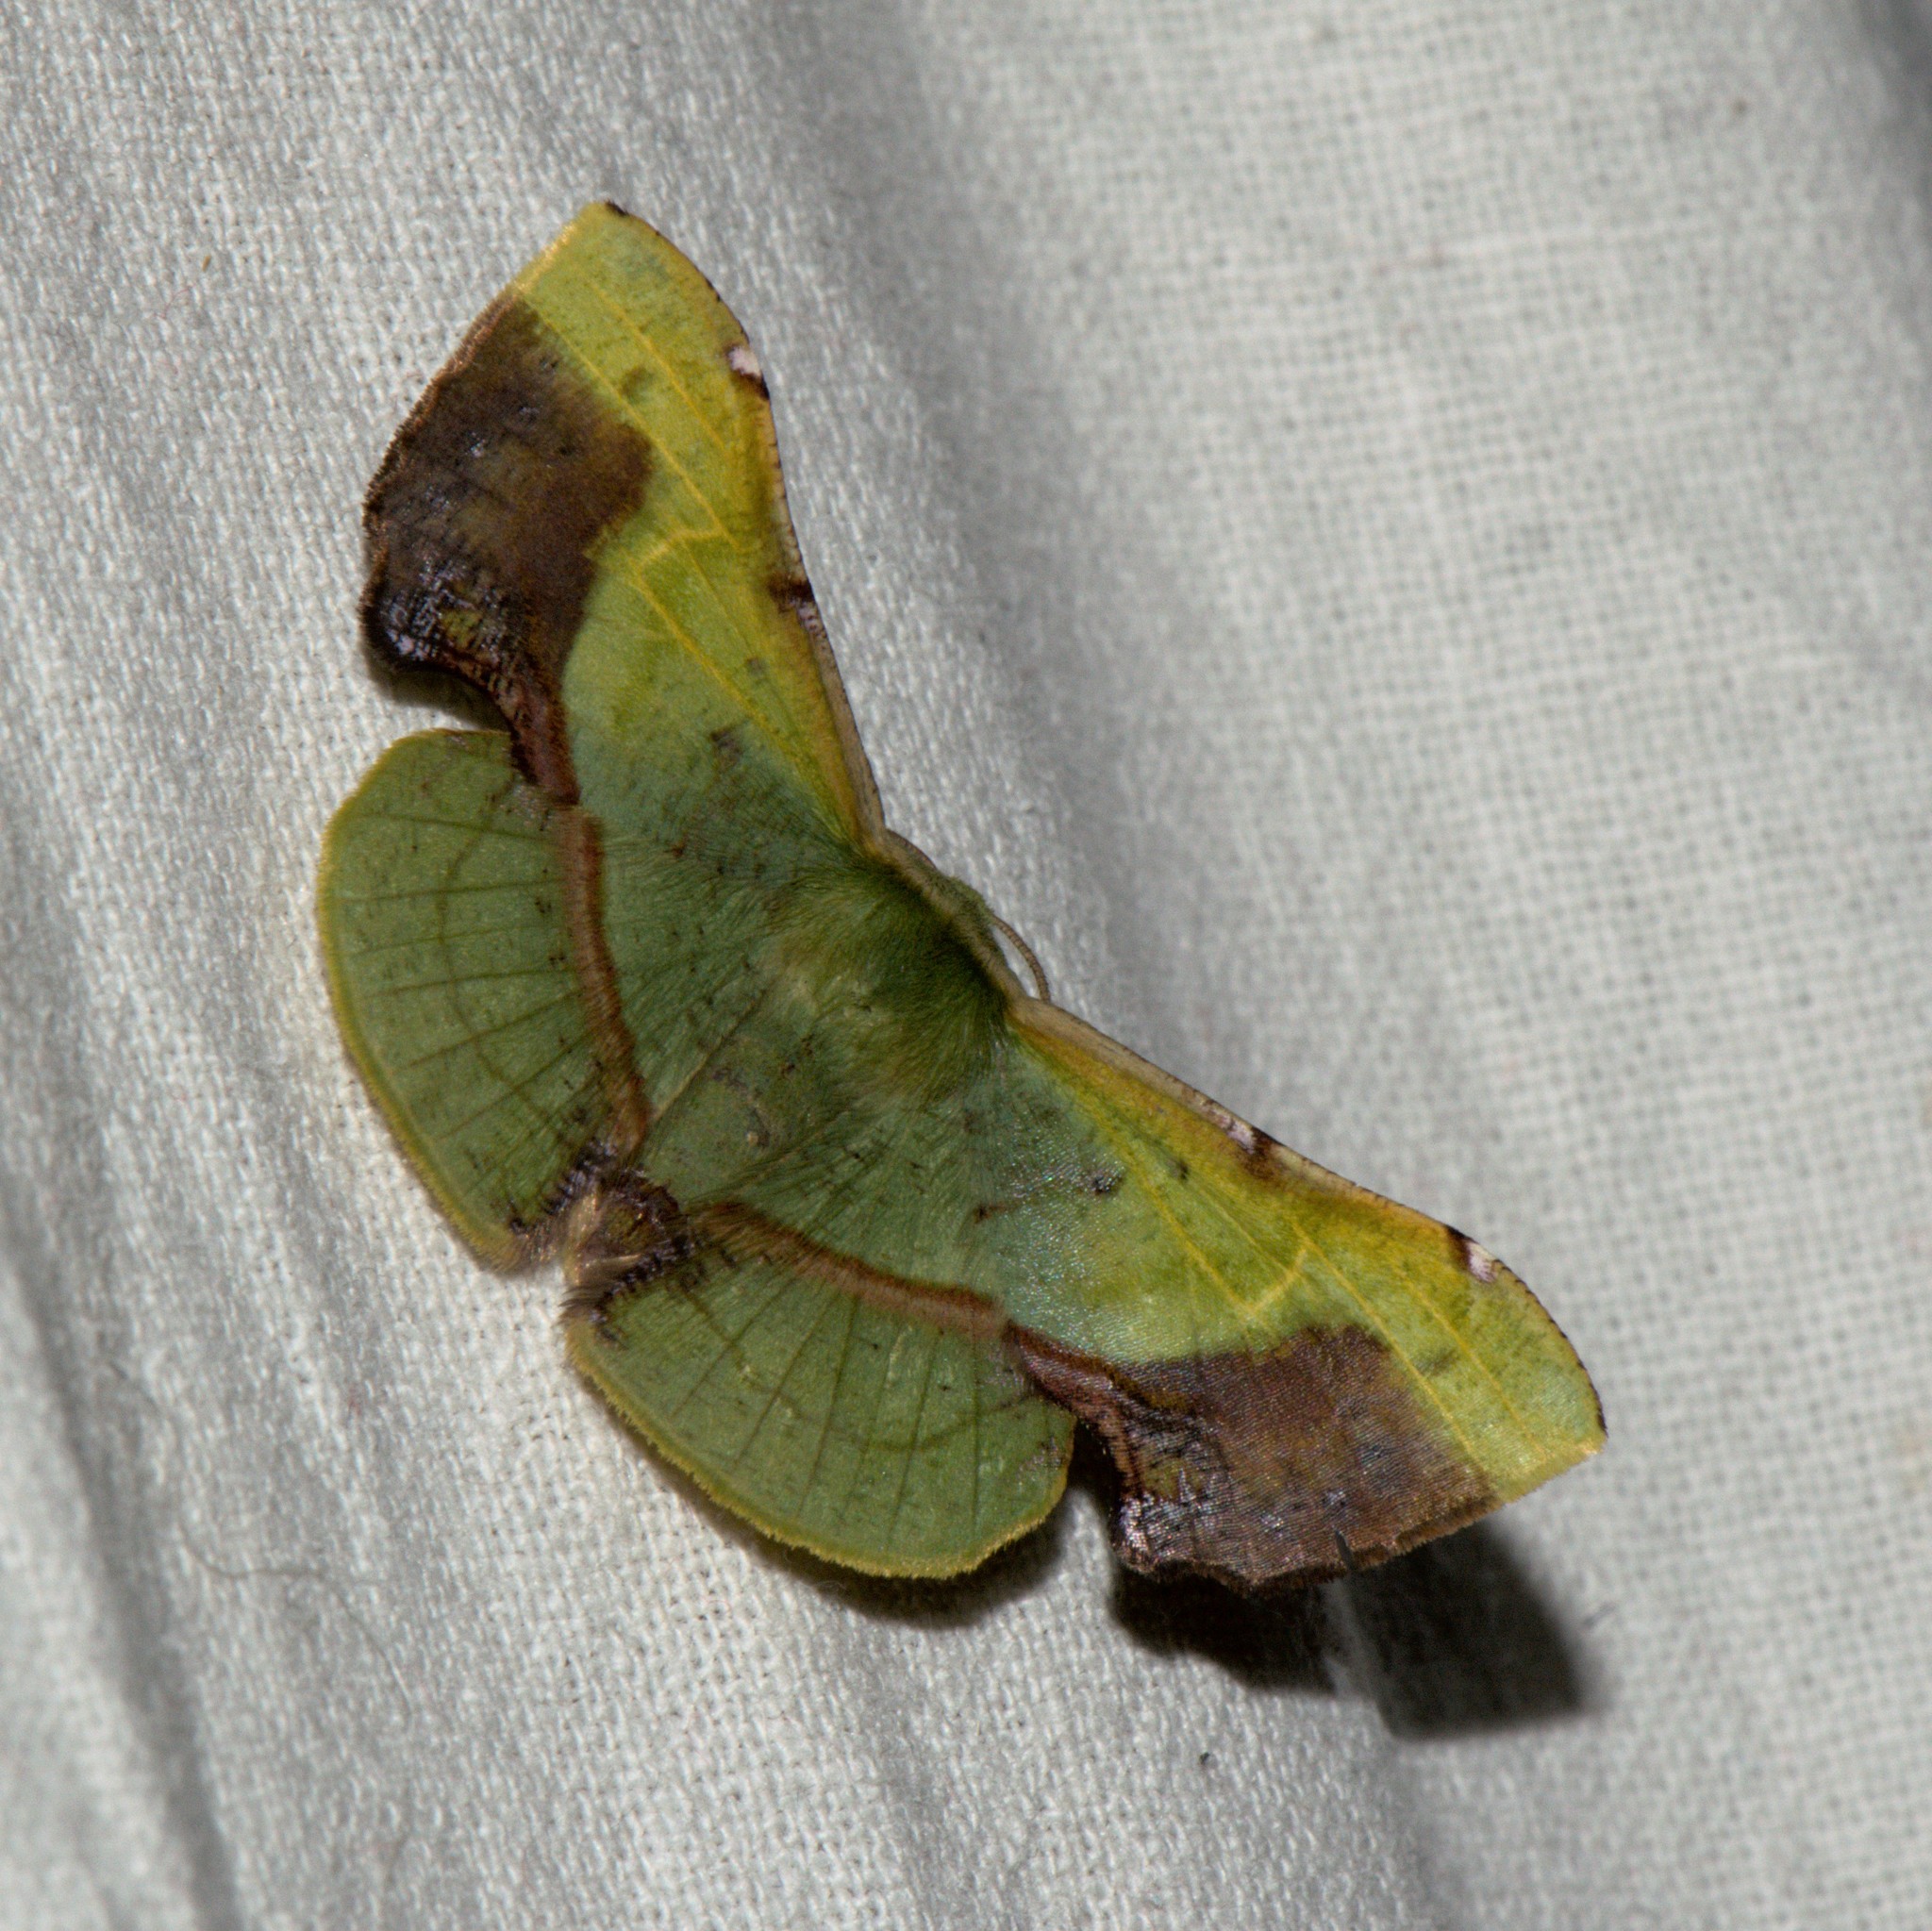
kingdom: Animalia
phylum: Arthropoda
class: Insecta
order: Lepidoptera
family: Geometridae
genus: Fascellina
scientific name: Fascellina plagiata
